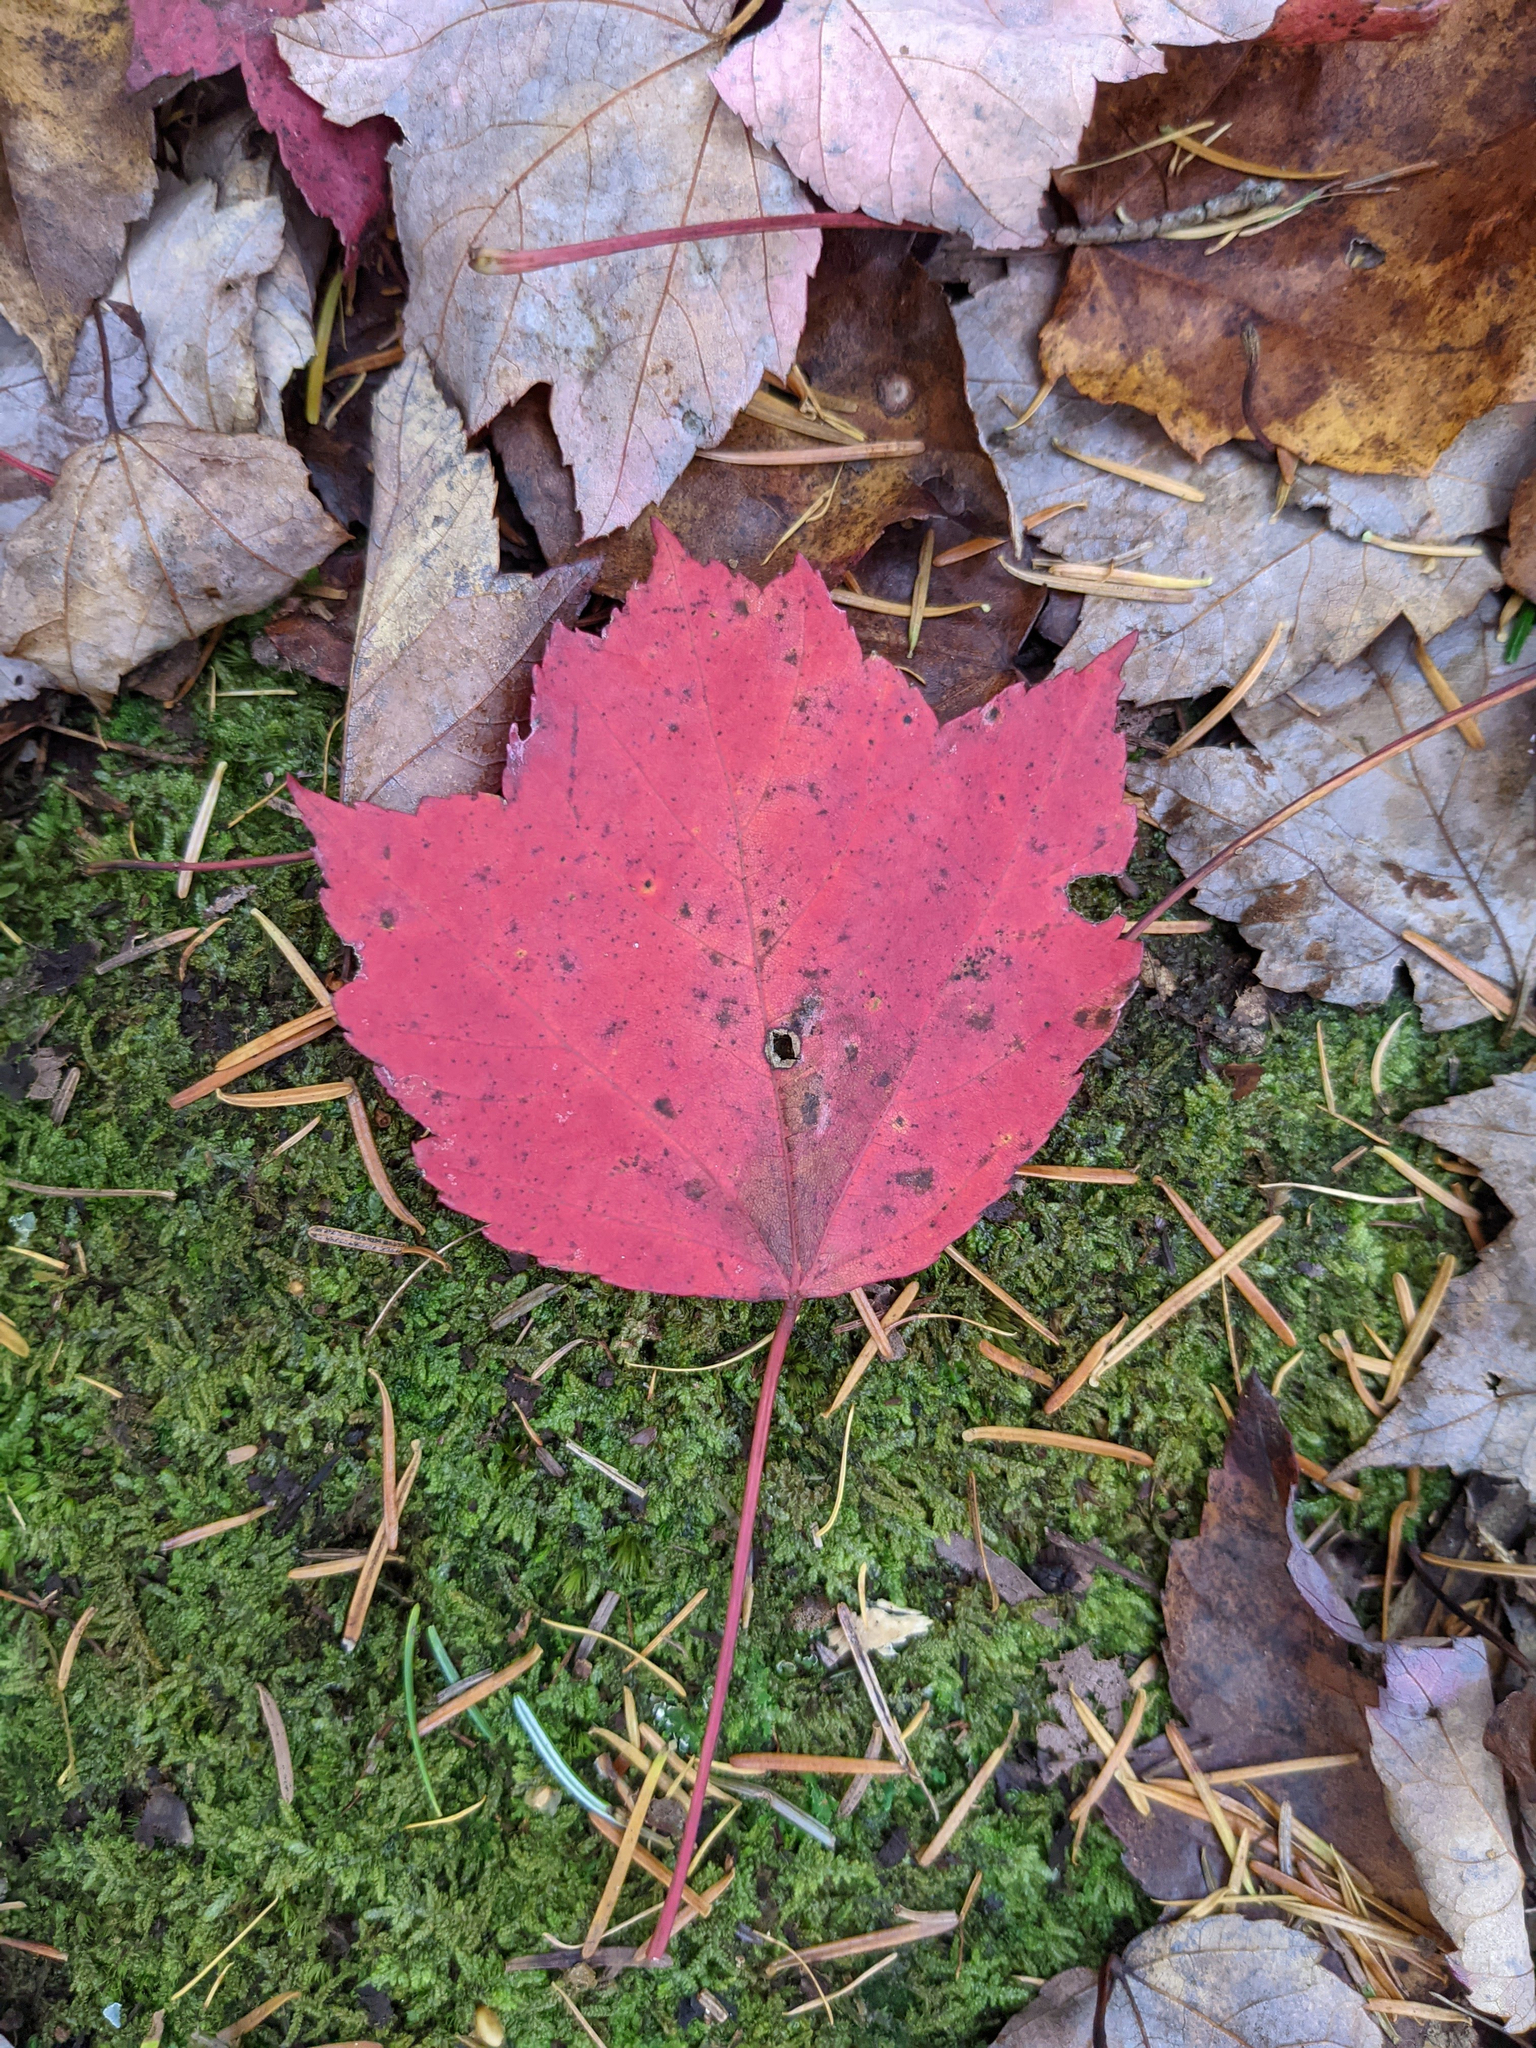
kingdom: Plantae
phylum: Tracheophyta
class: Magnoliopsida
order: Sapindales
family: Sapindaceae
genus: Acer
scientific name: Acer rubrum
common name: Red maple
